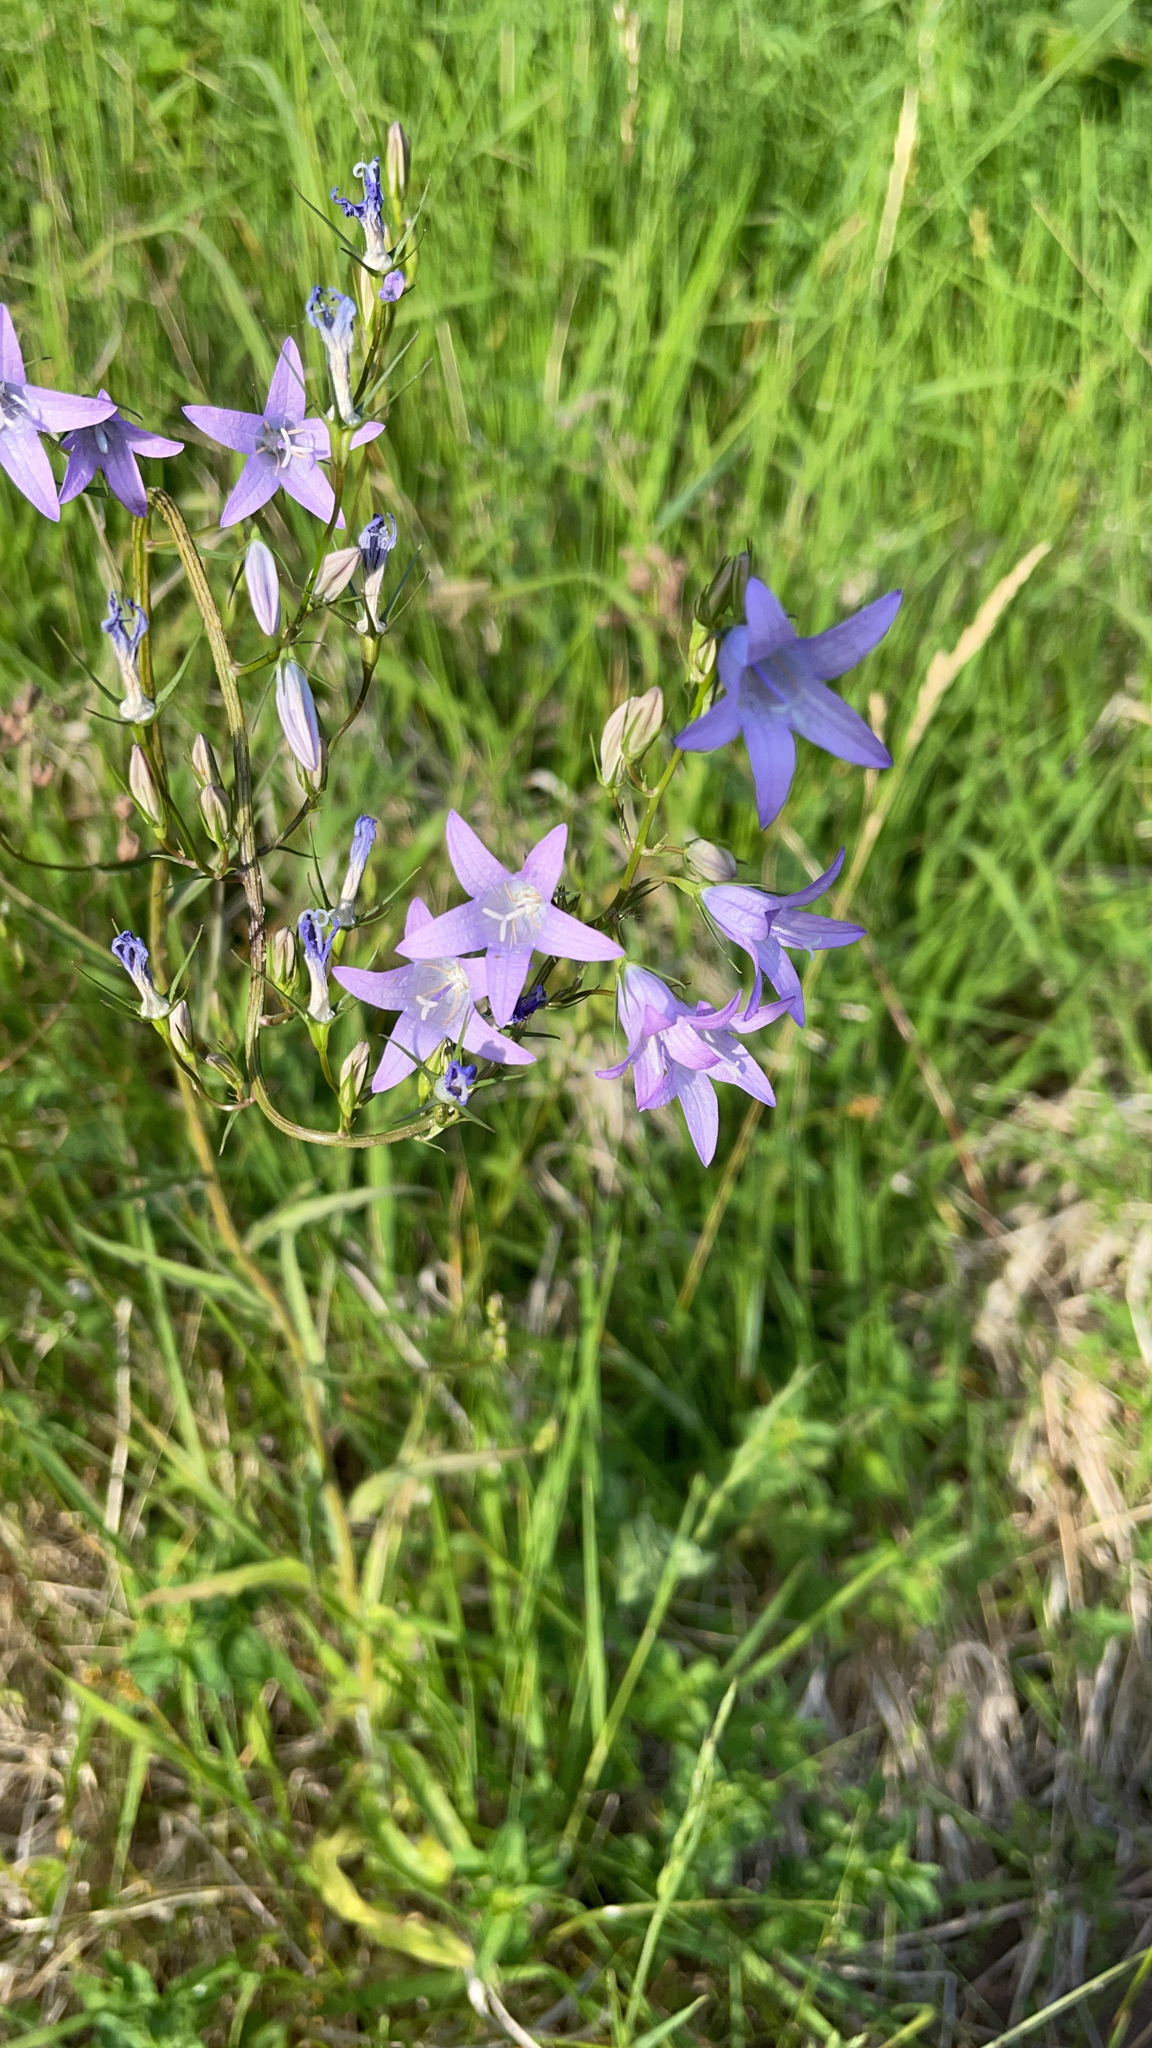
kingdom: Plantae
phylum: Tracheophyta
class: Magnoliopsida
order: Asterales
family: Campanulaceae
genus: Campanula
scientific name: Campanula rapunculus
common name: Rampion bellflower
